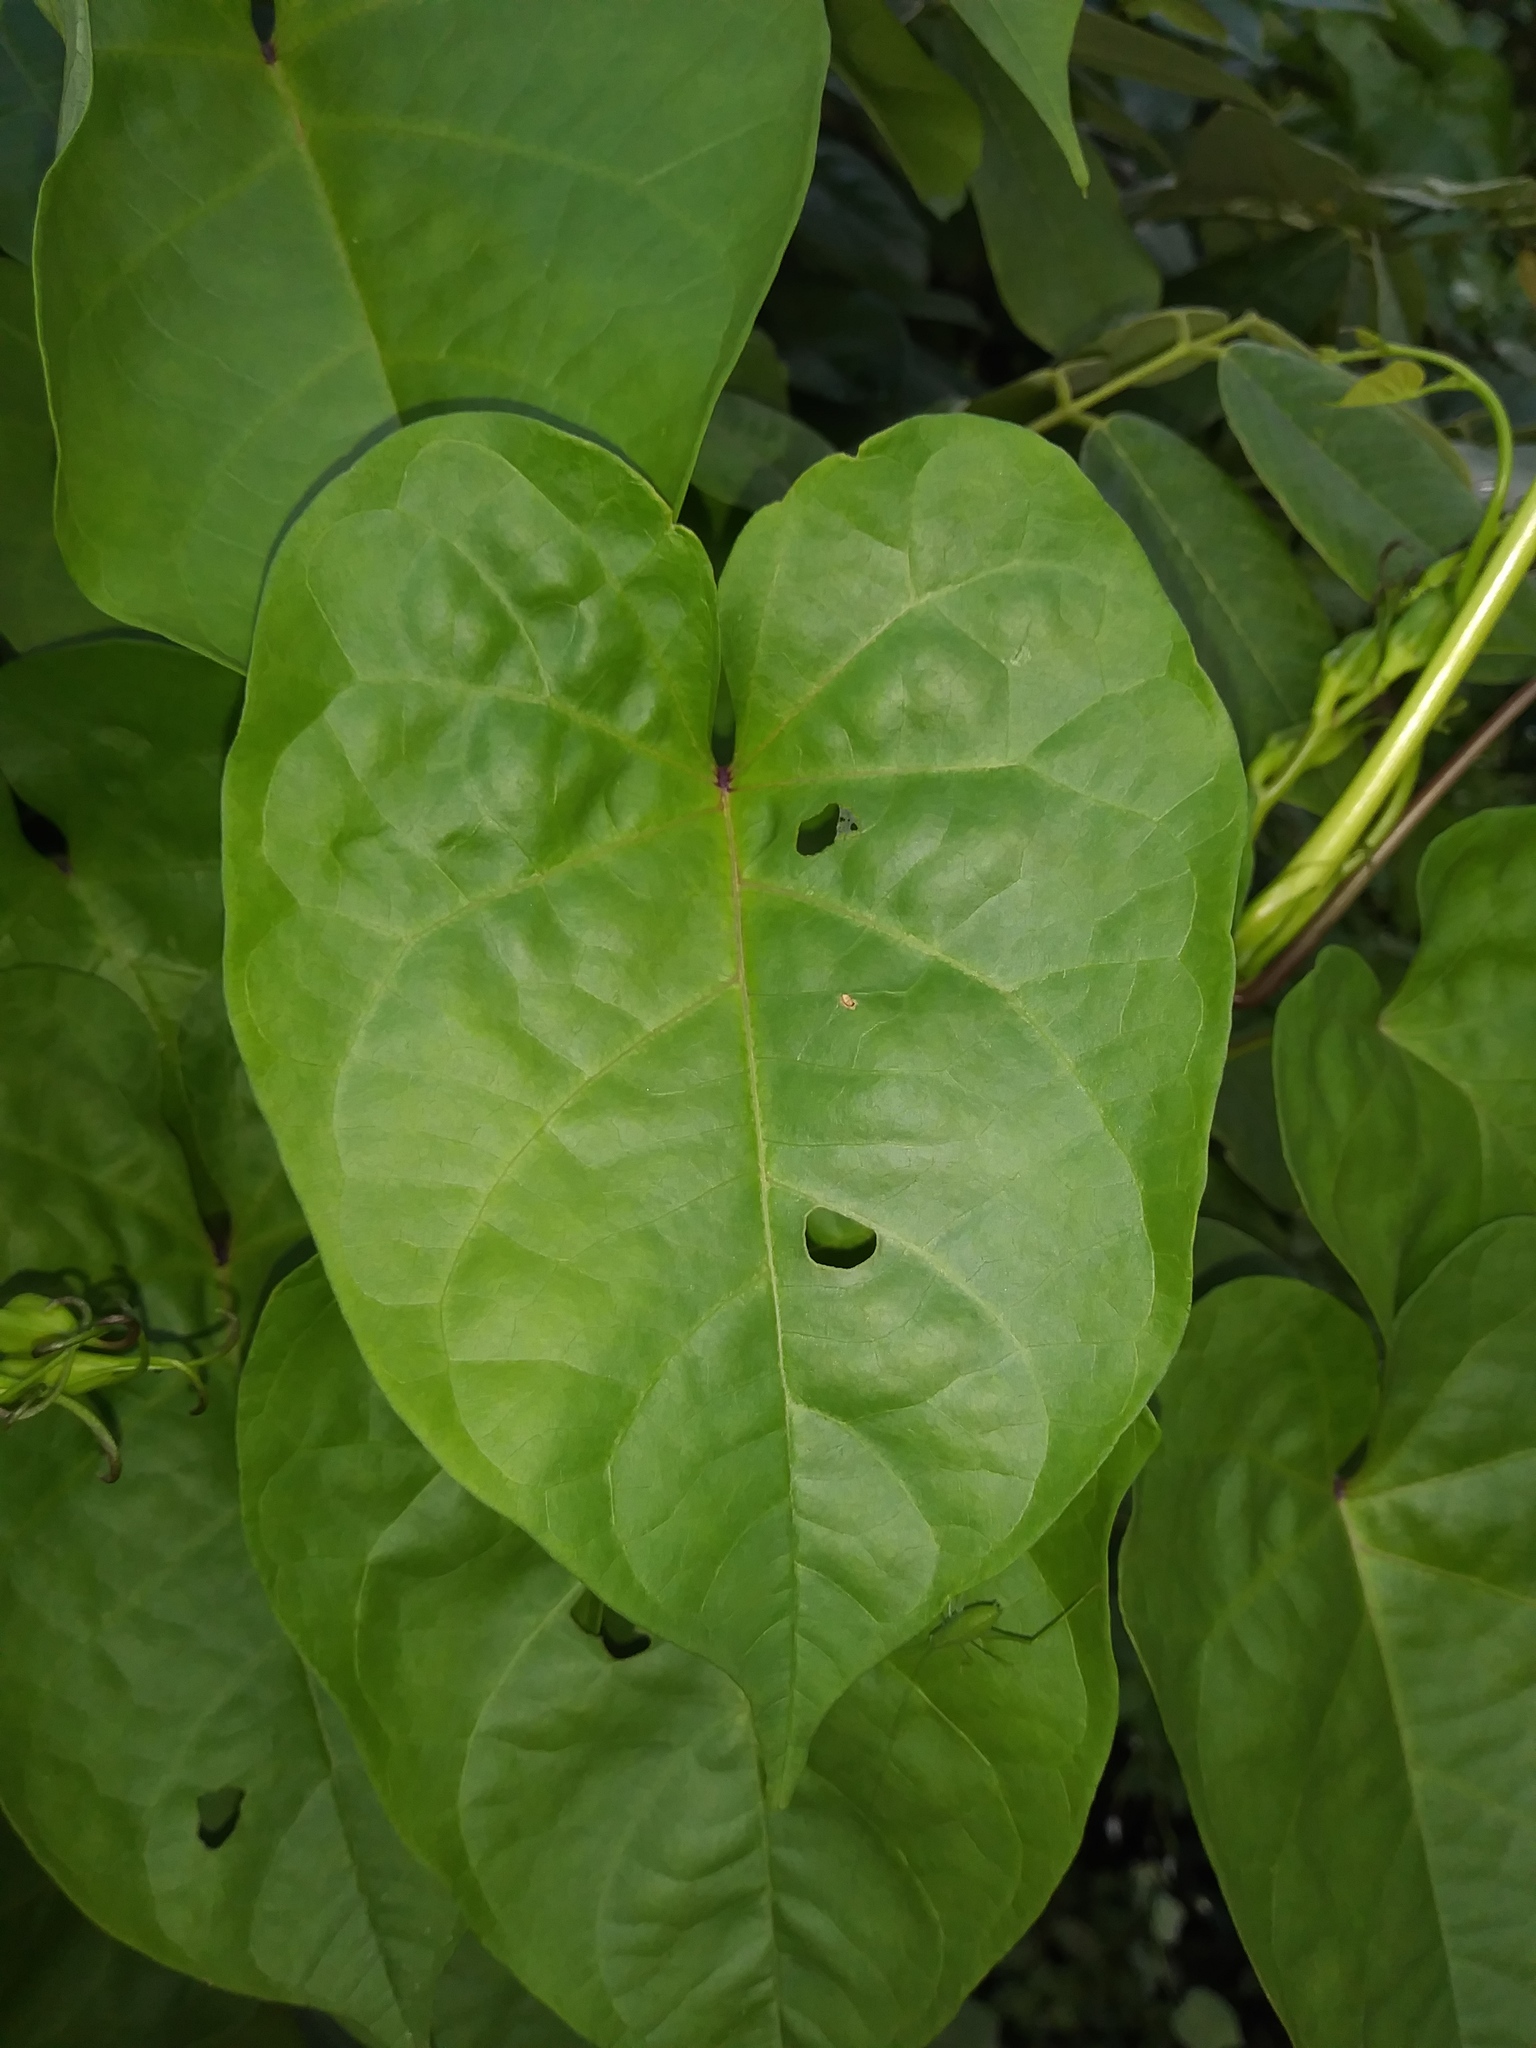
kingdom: Plantae
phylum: Tracheophyta
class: Magnoliopsida
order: Solanales
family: Convolvulaceae
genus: Ipomoea
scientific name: Ipomoea alba
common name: Moonflower
